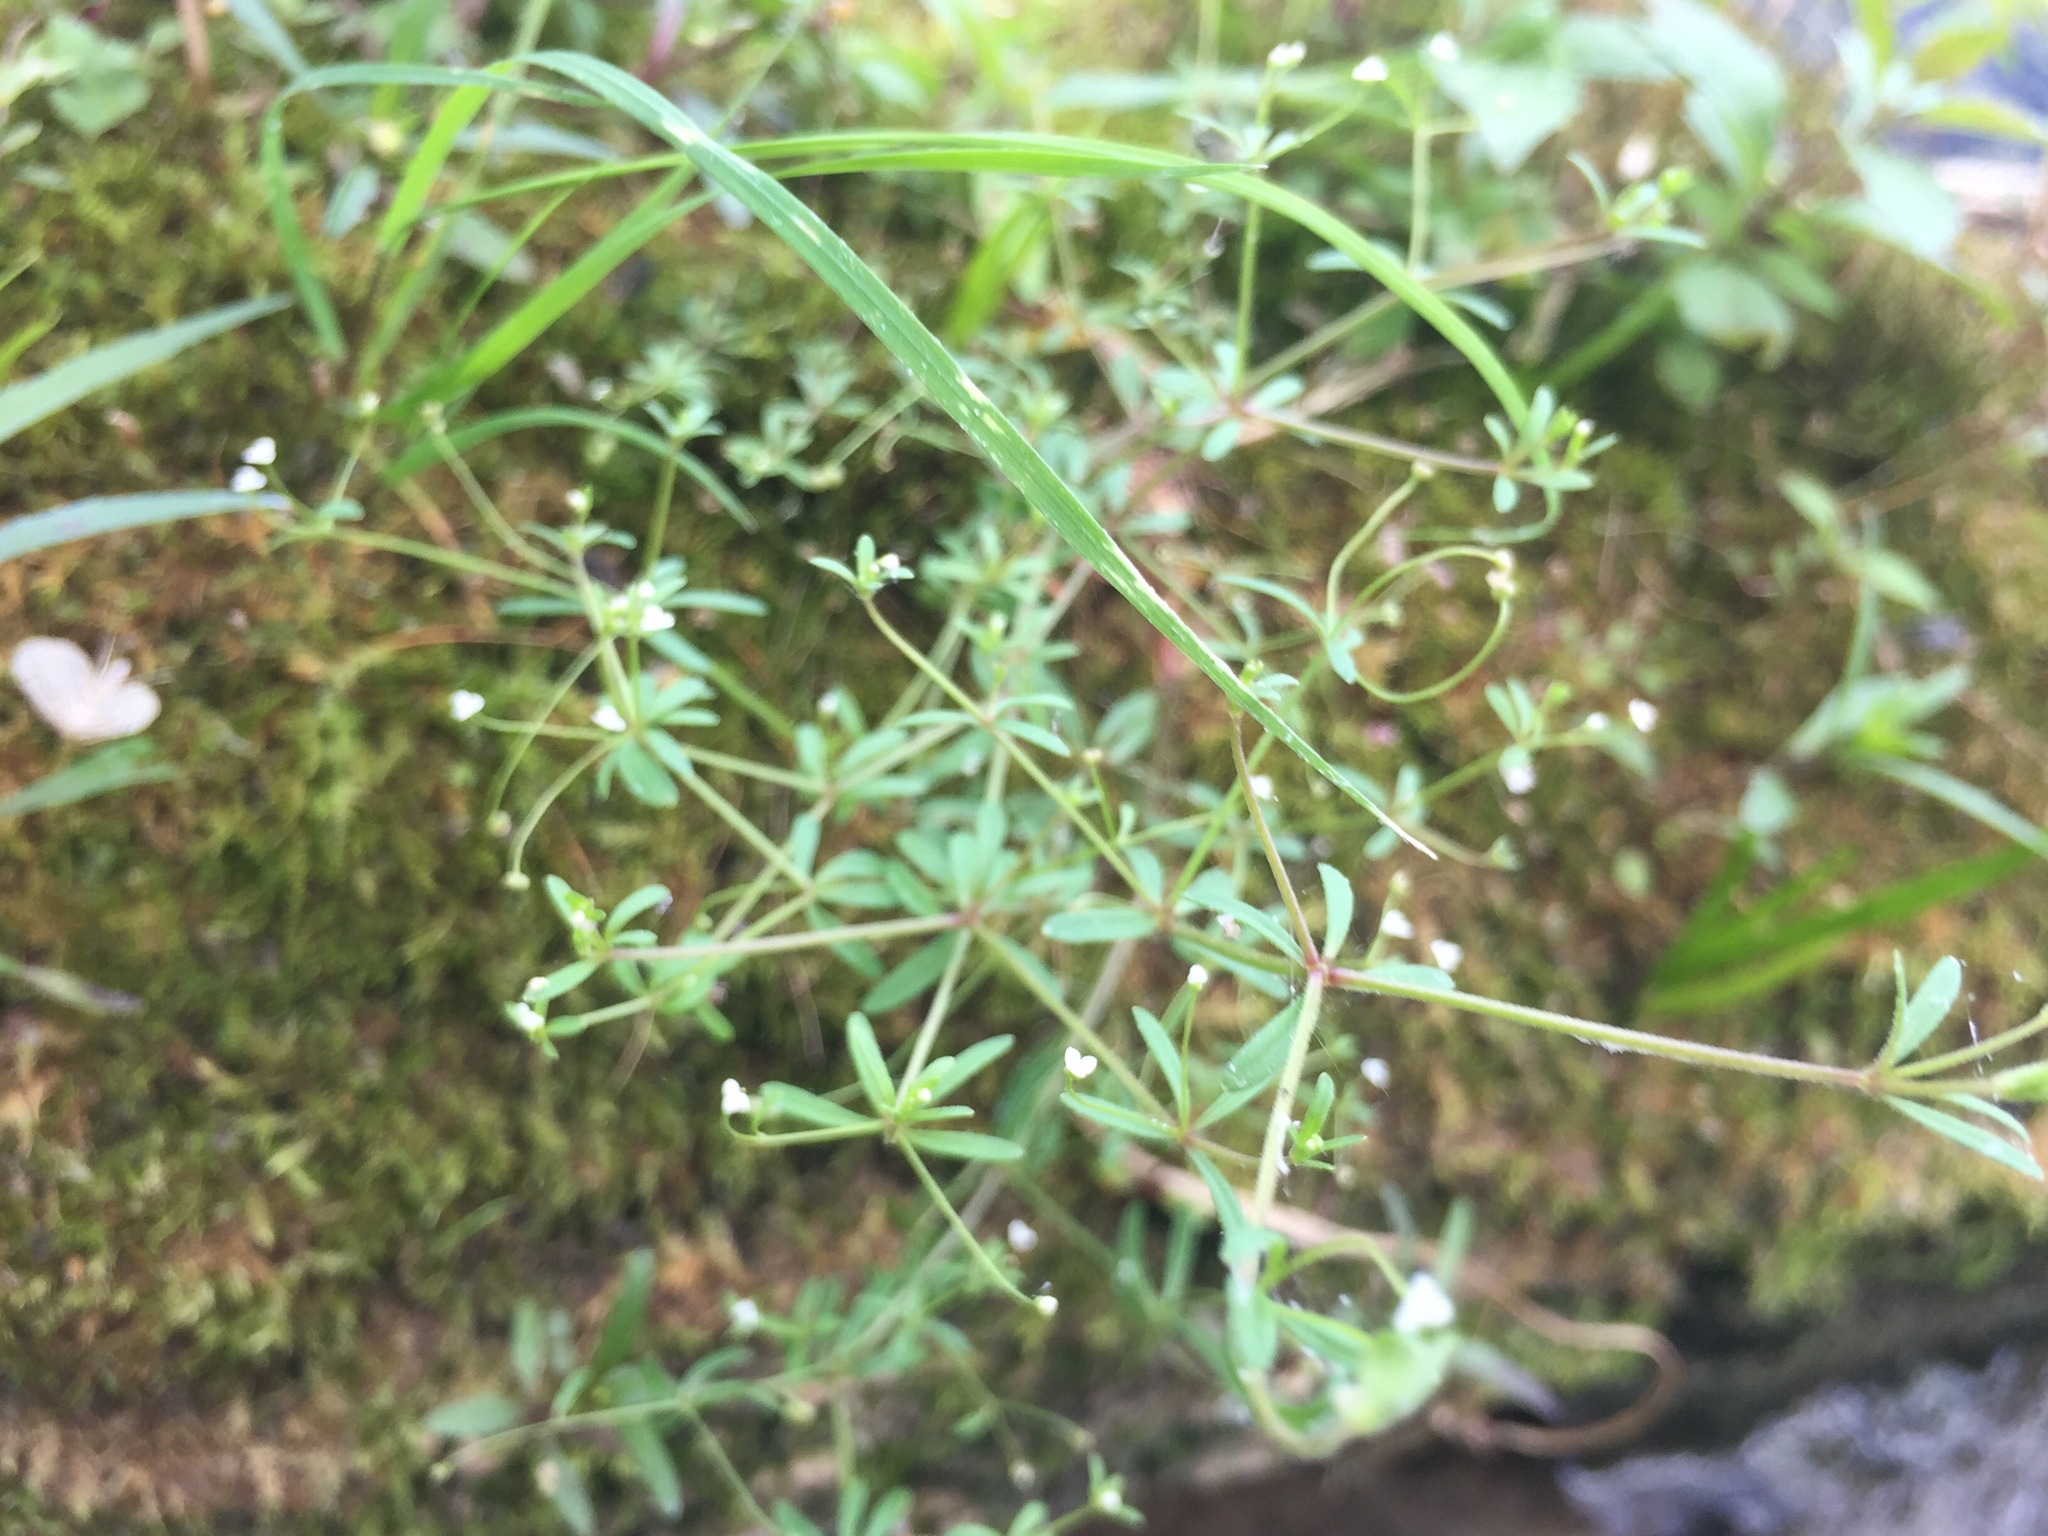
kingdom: Plantae
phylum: Tracheophyta
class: Magnoliopsida
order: Gentianales
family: Rubiaceae
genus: Galium
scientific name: Galium trifidum
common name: Small bedstraw
